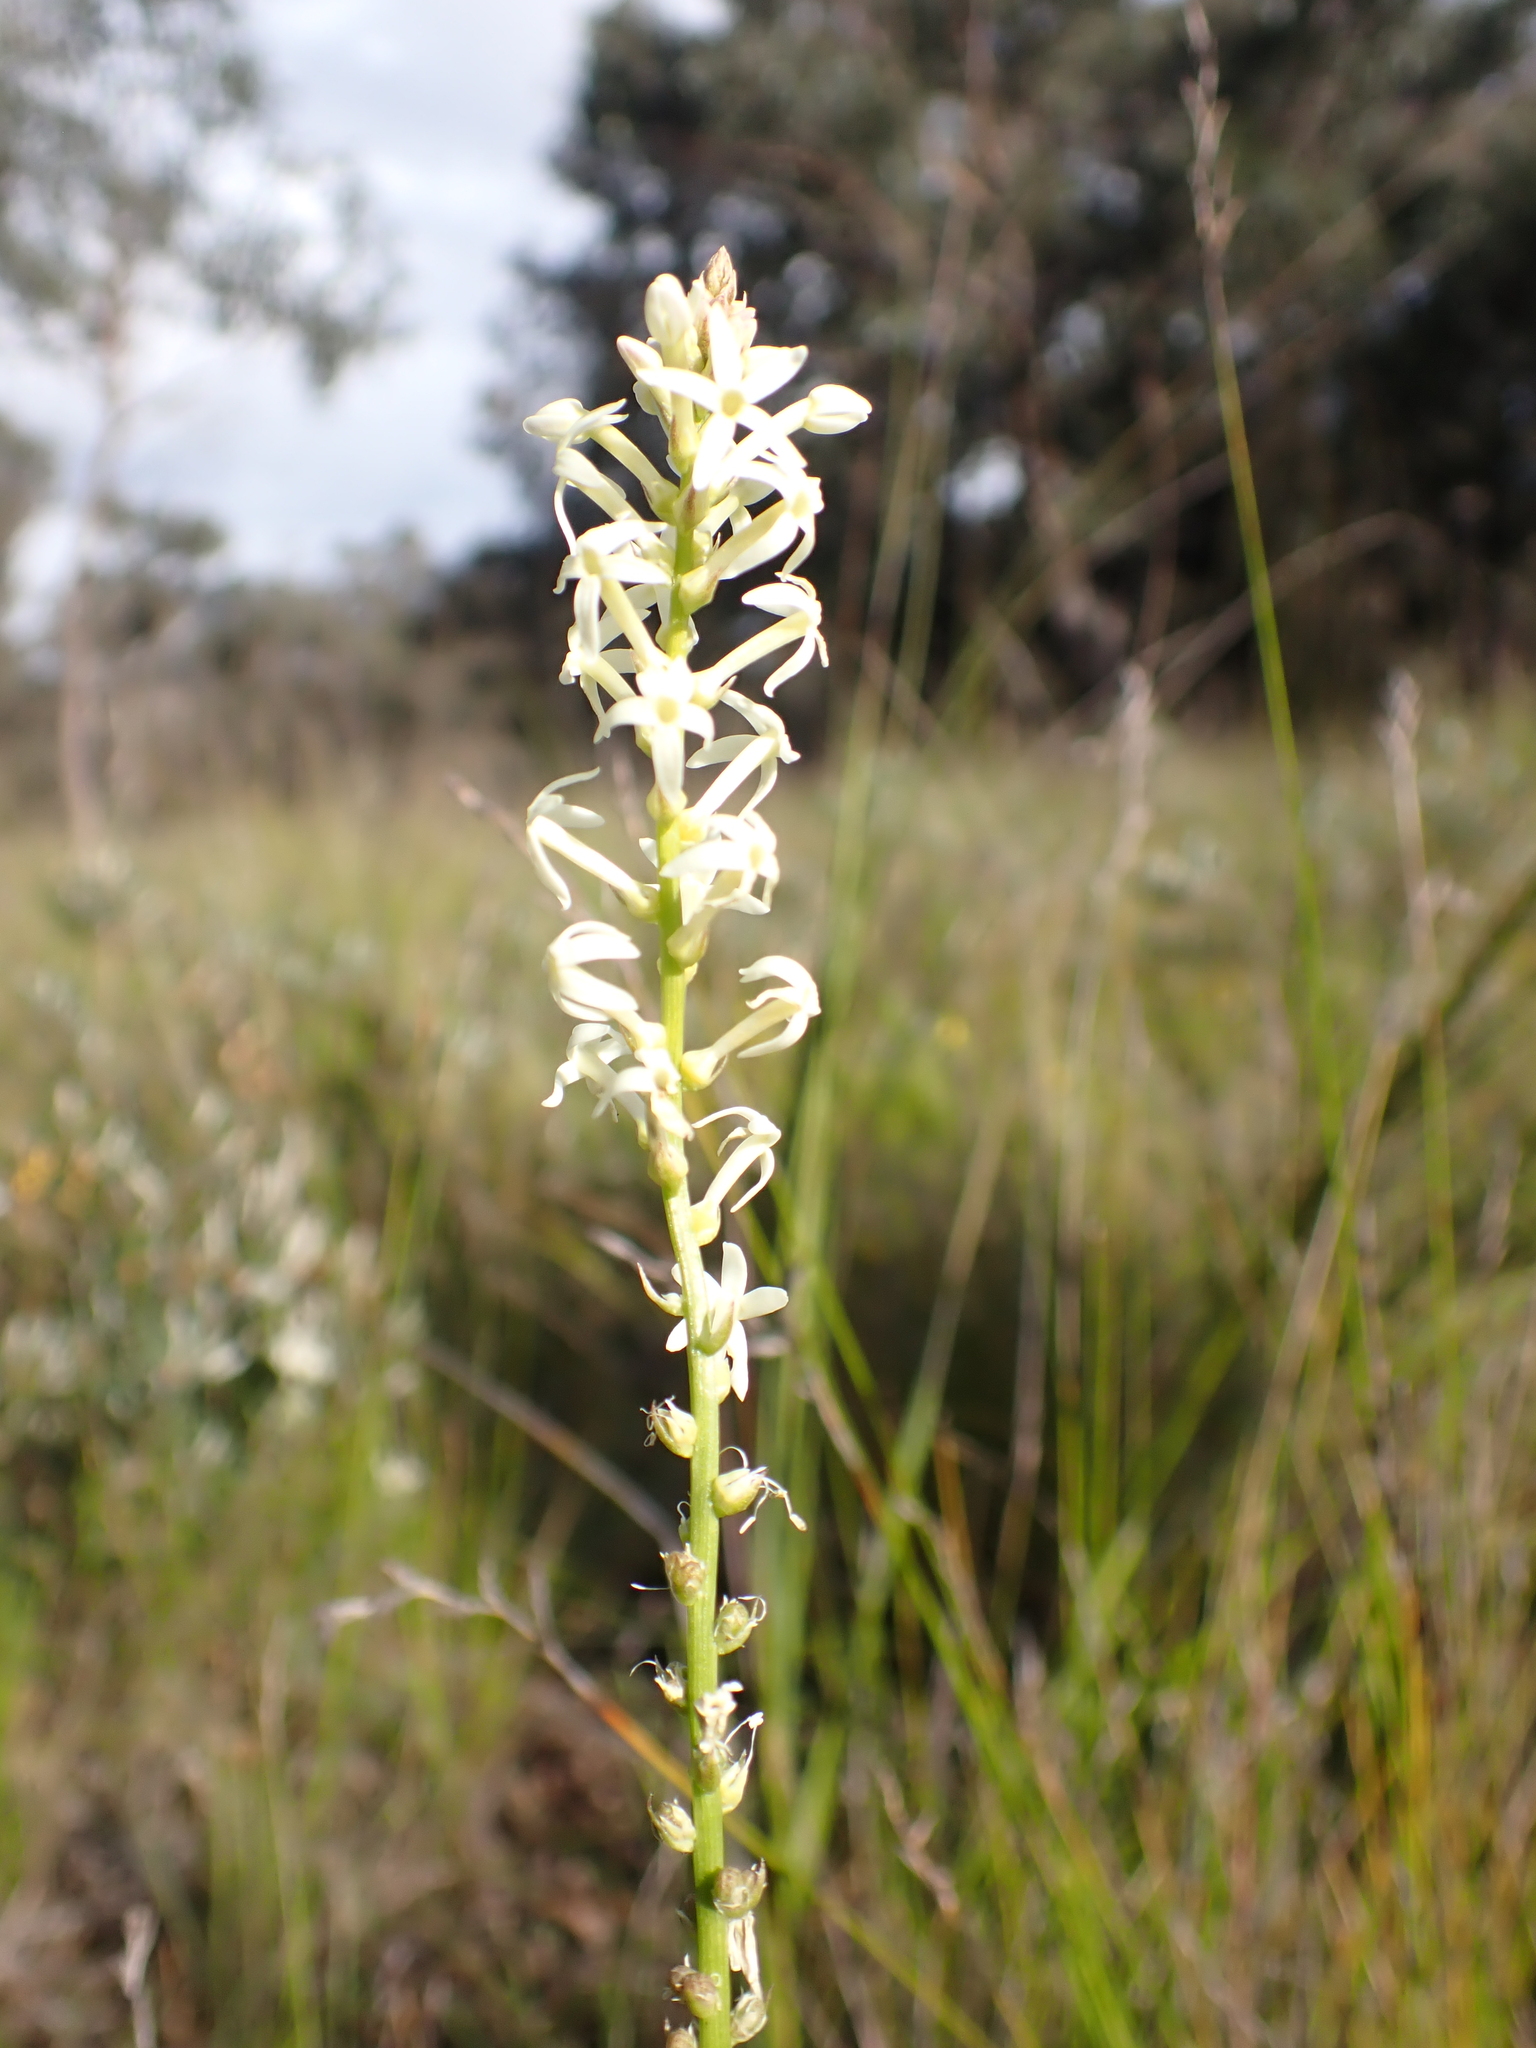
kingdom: Plantae
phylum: Tracheophyta
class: Magnoliopsida
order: Celastrales
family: Celastraceae
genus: Stackhousia
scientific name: Stackhousia monogyna
